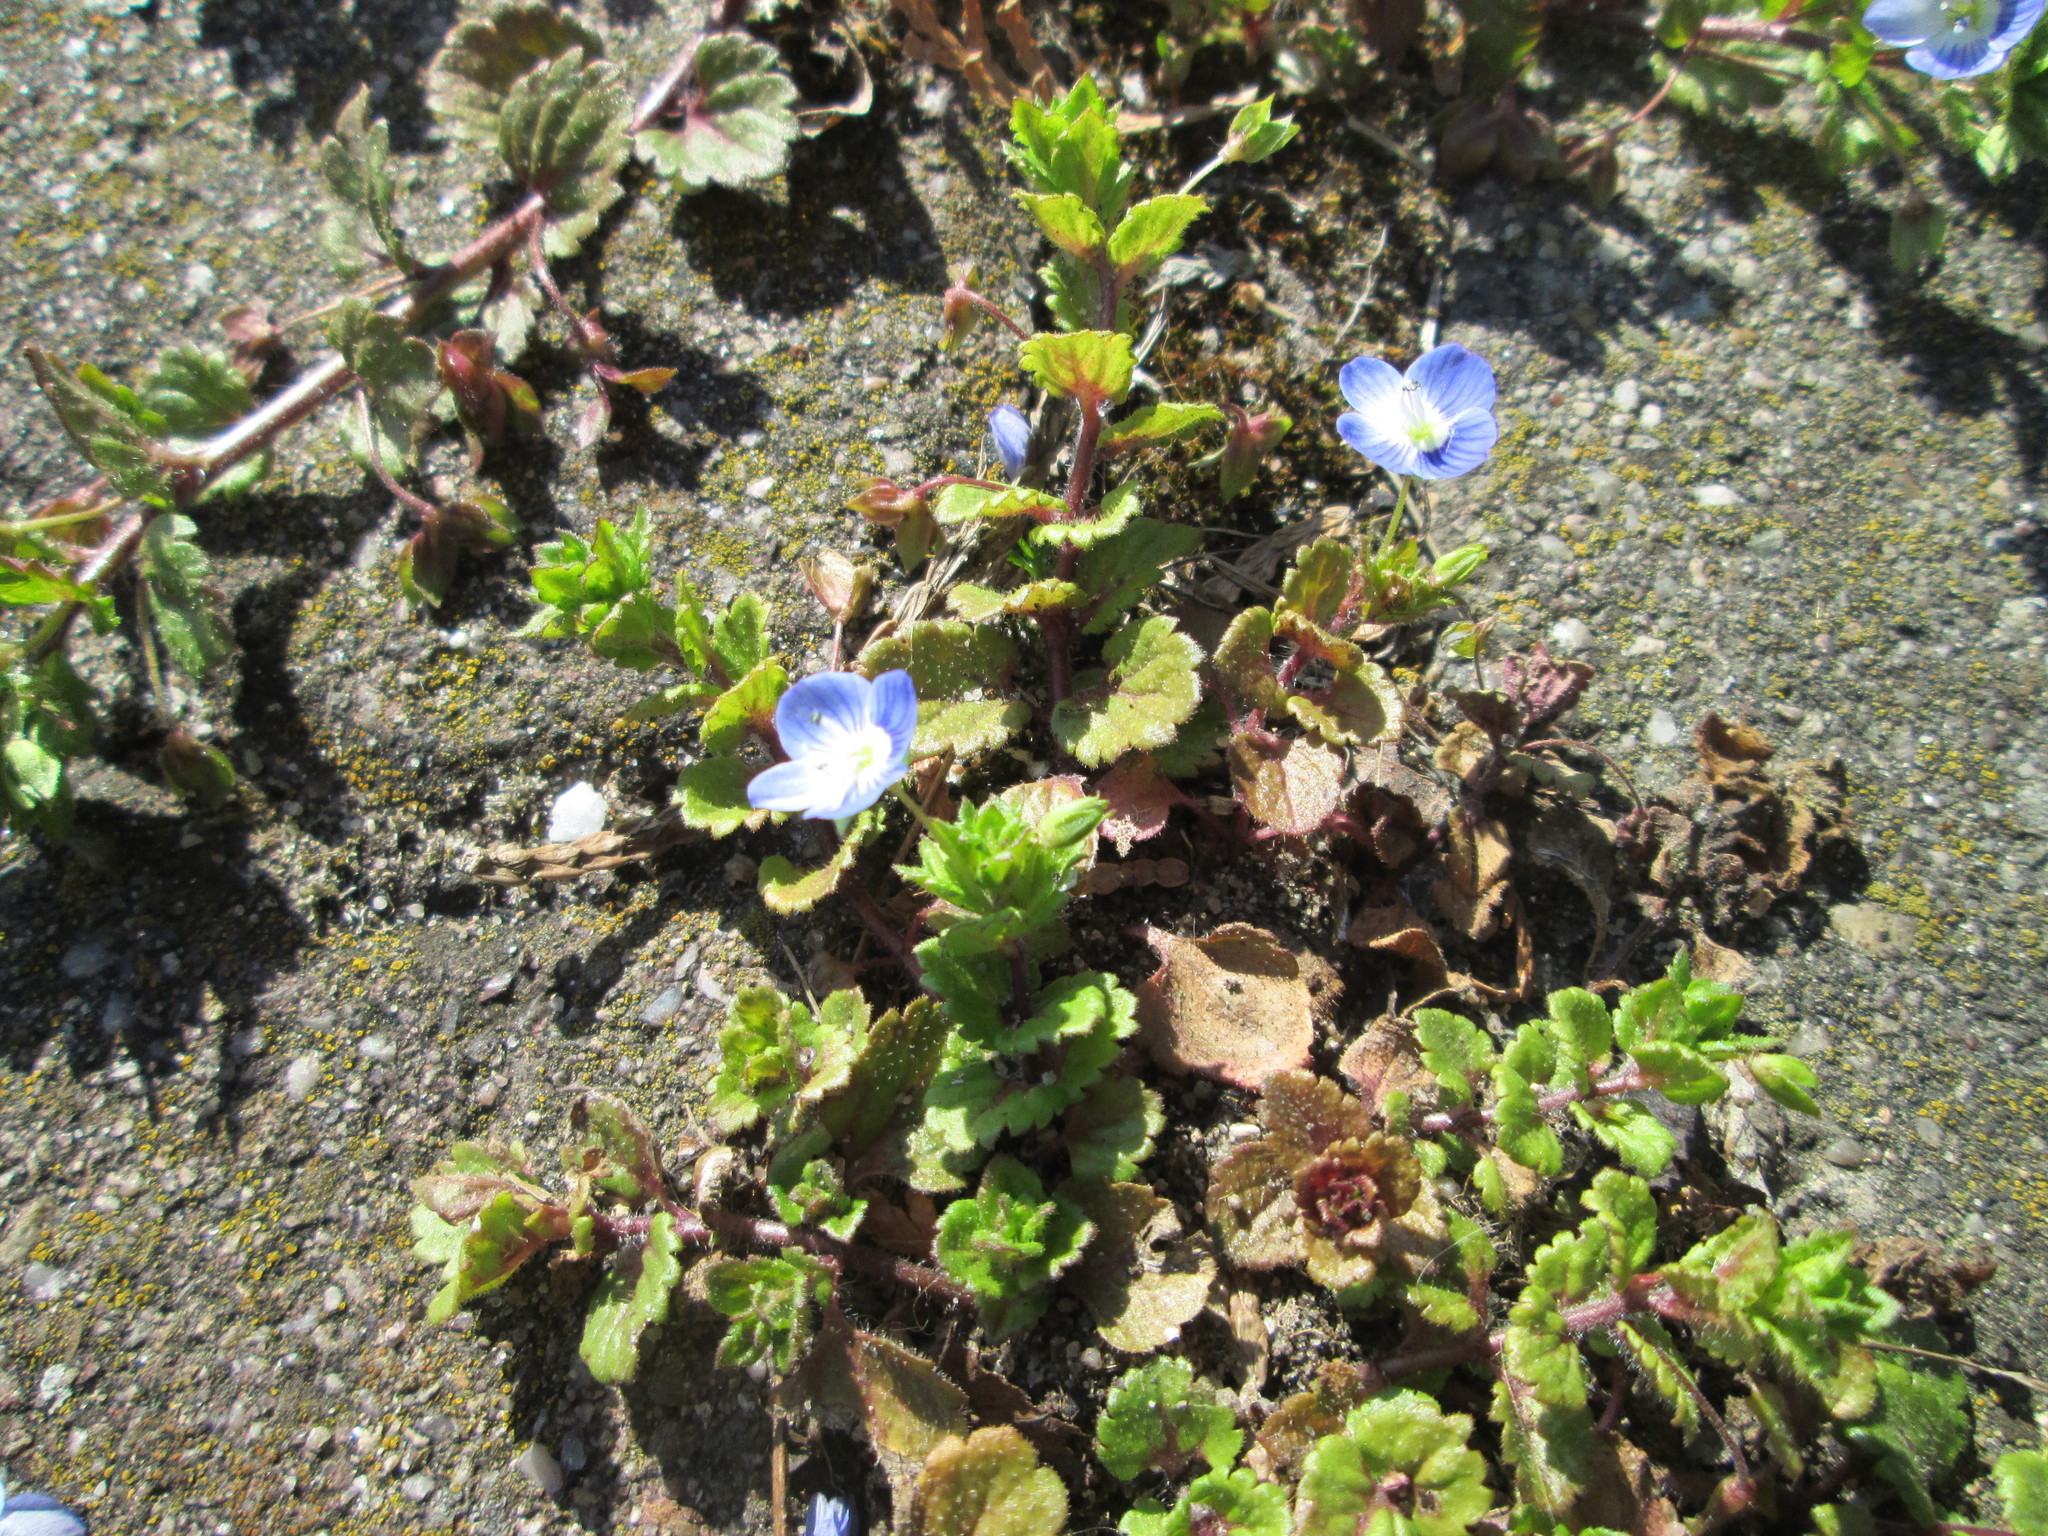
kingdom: Plantae
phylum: Tracheophyta
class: Magnoliopsida
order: Lamiales
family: Plantaginaceae
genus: Veronica
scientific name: Veronica persica
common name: Common field-speedwell
